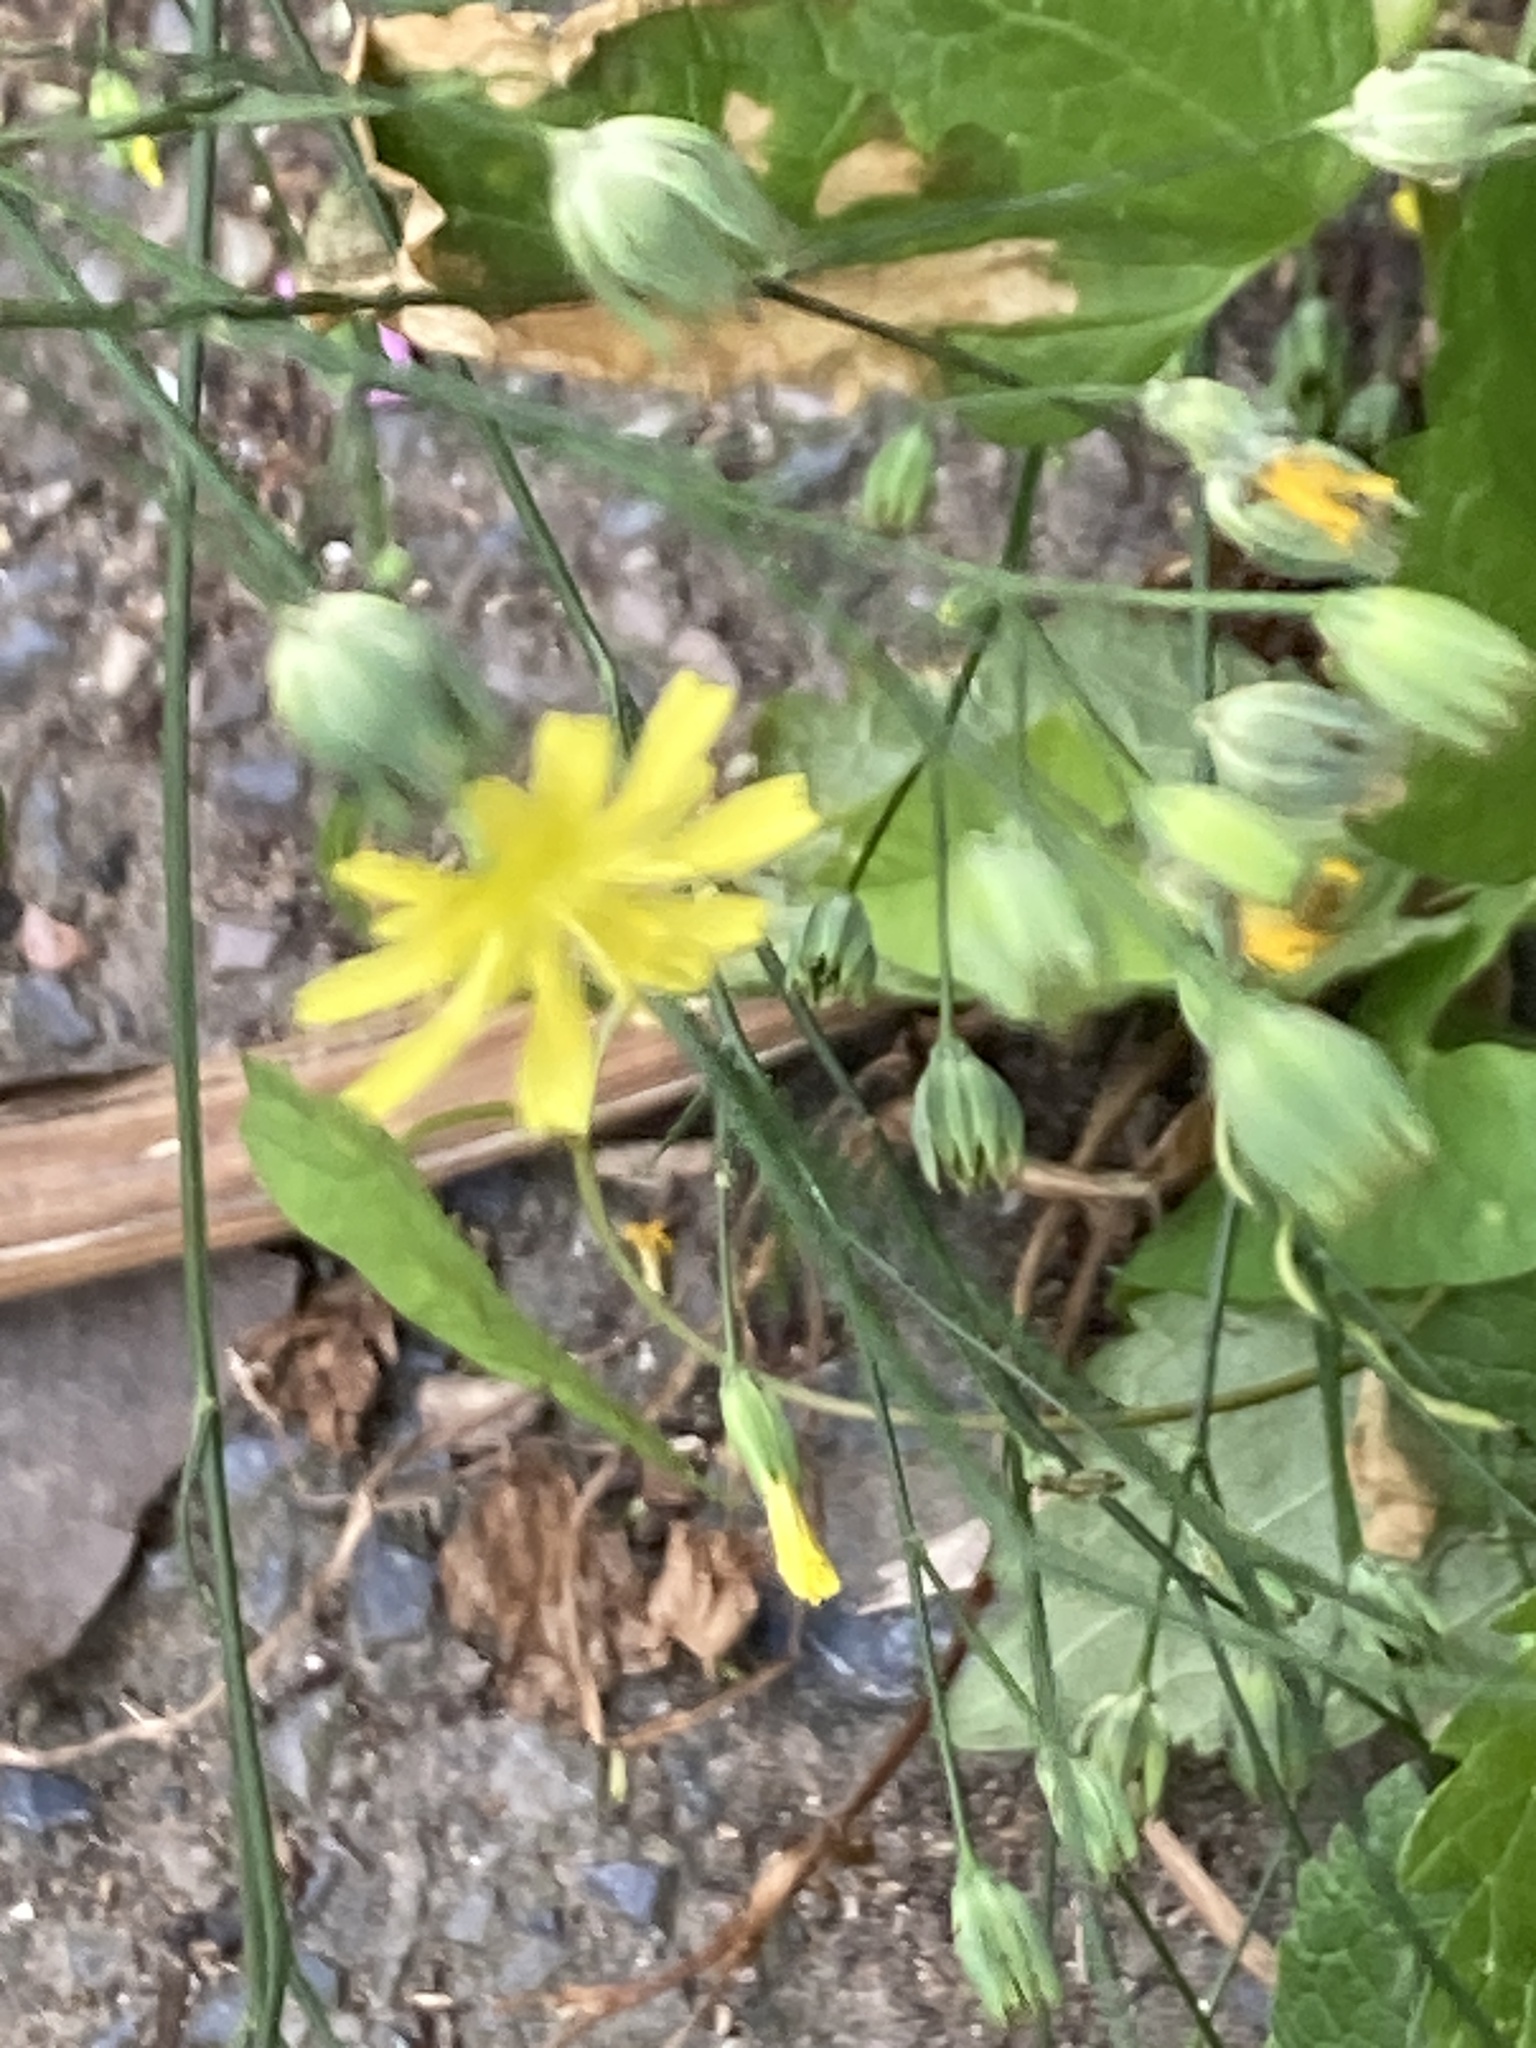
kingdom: Plantae
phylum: Tracheophyta
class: Magnoliopsida
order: Asterales
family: Asteraceae
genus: Lapsana
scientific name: Lapsana communis
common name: Nipplewort
